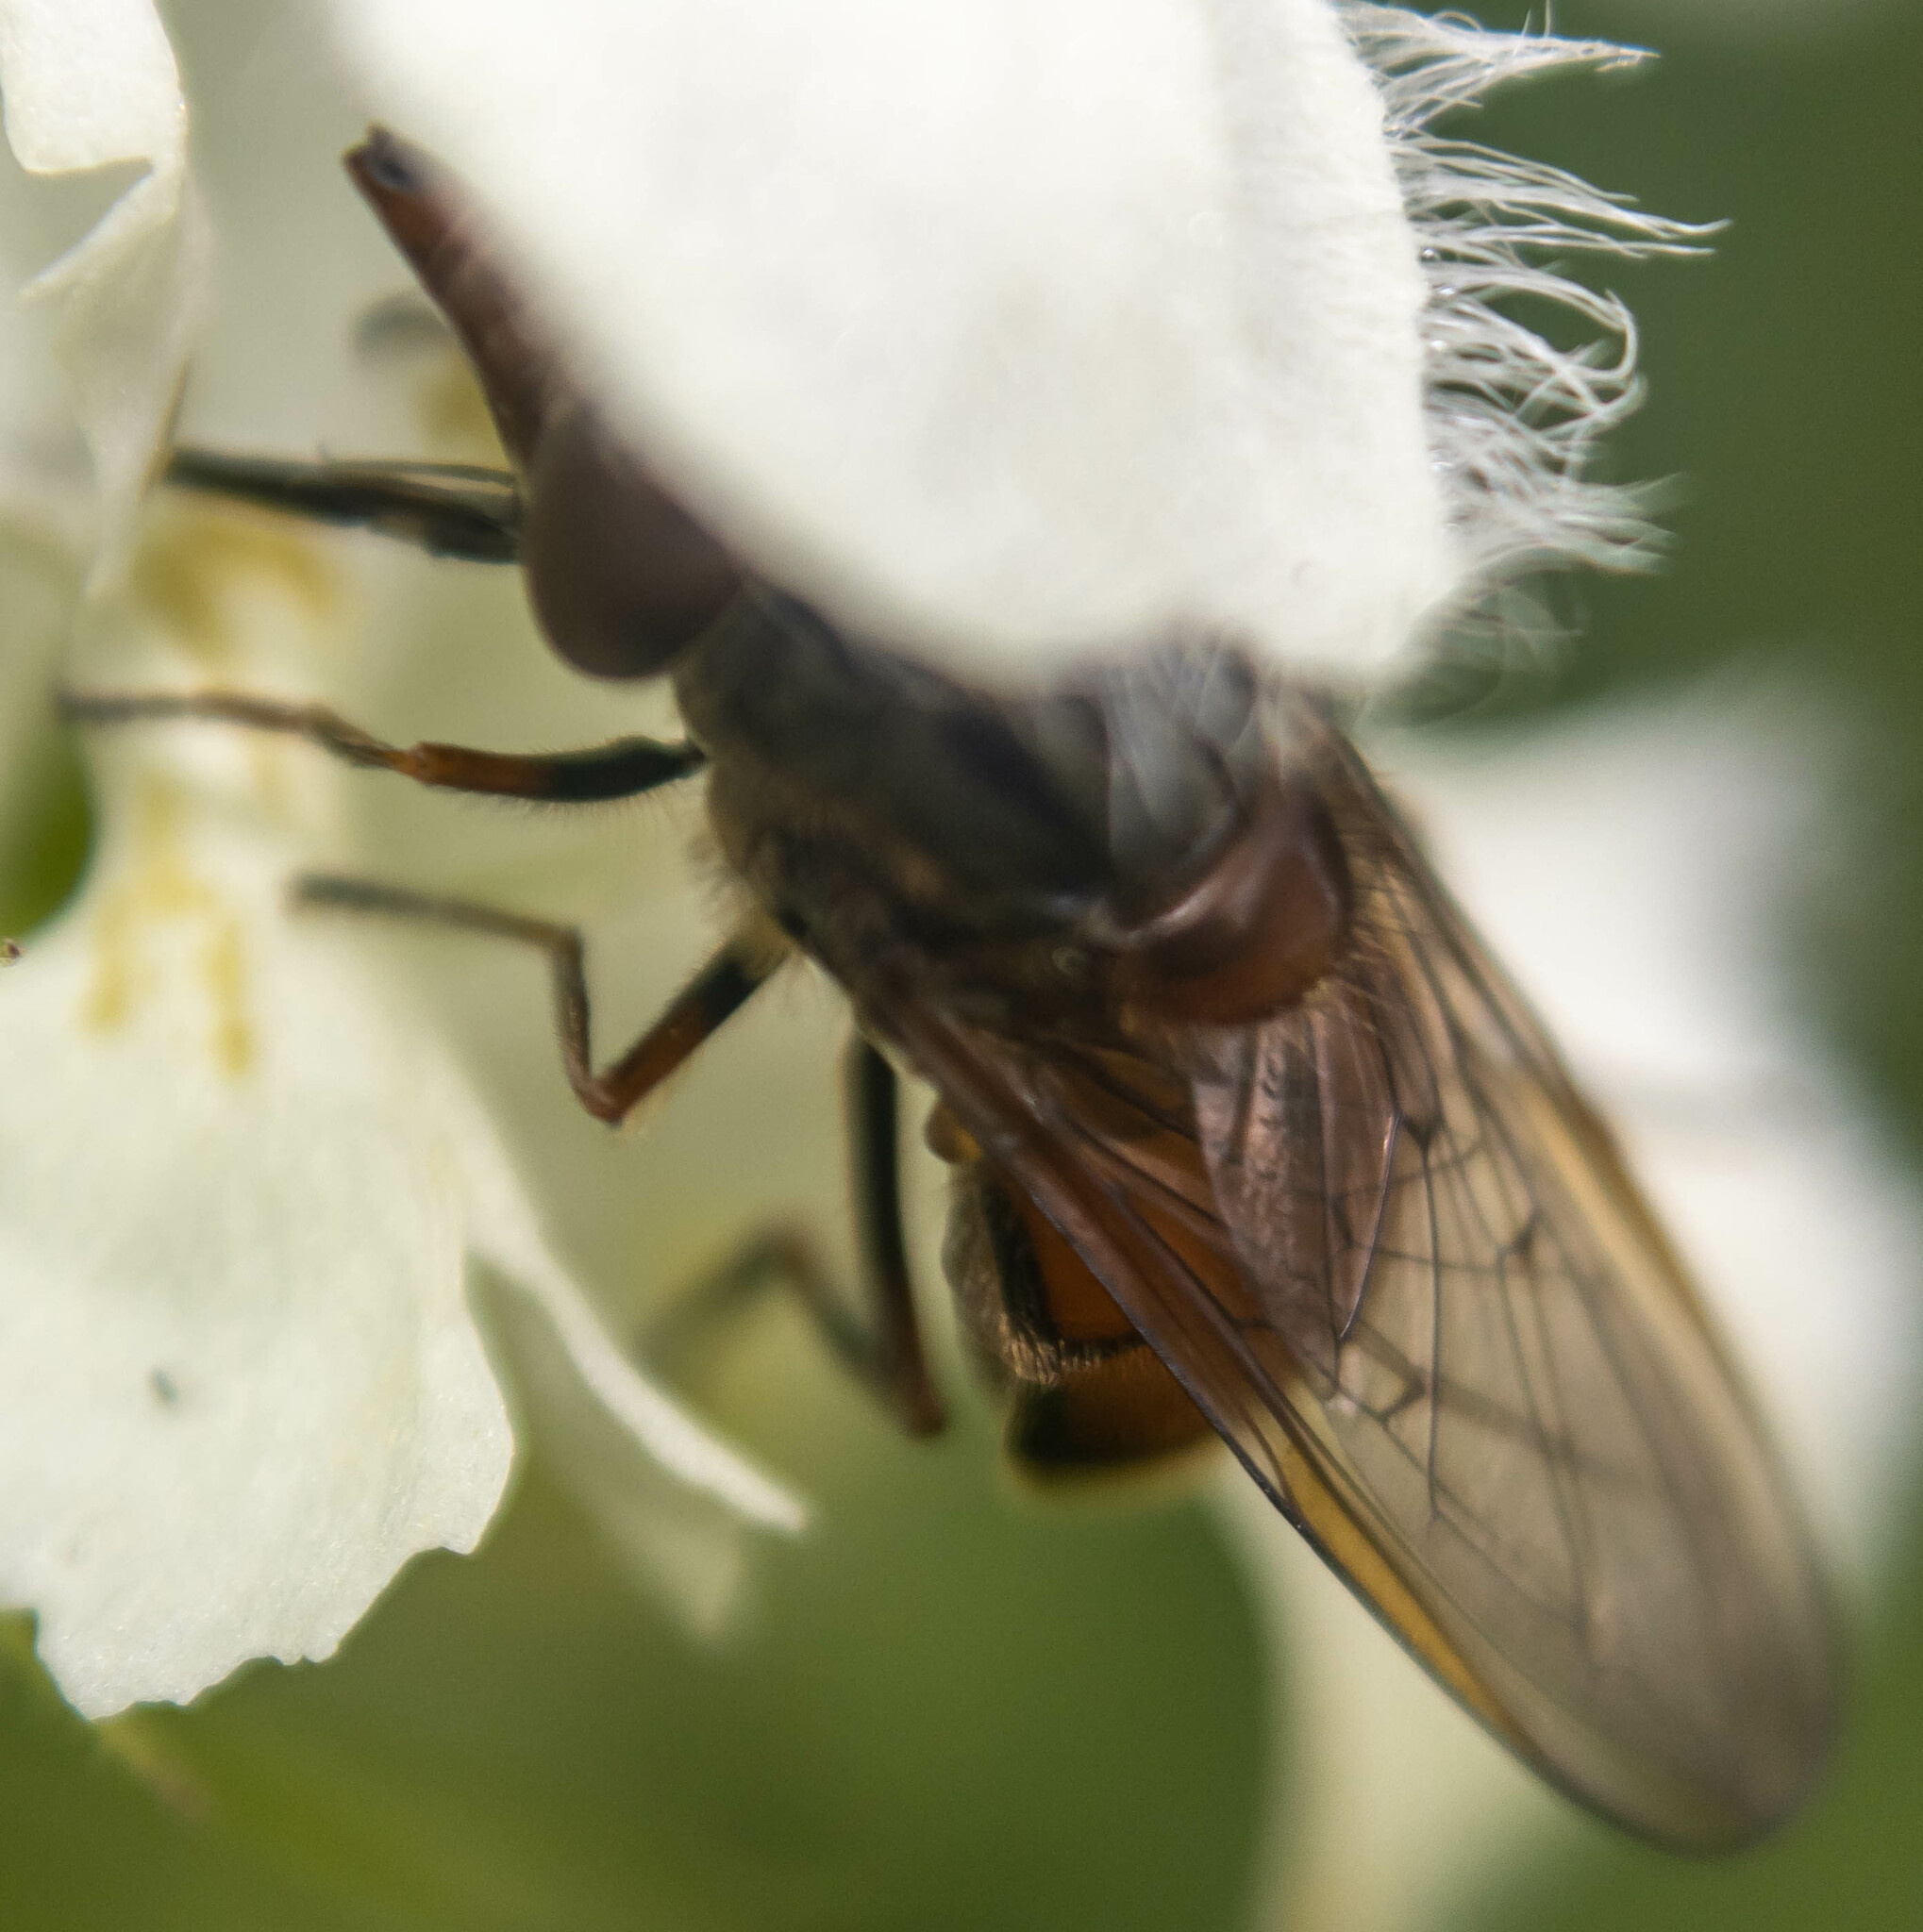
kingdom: Animalia
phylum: Arthropoda
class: Insecta
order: Diptera
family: Syrphidae
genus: Rhingia
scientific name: Rhingia campestris
